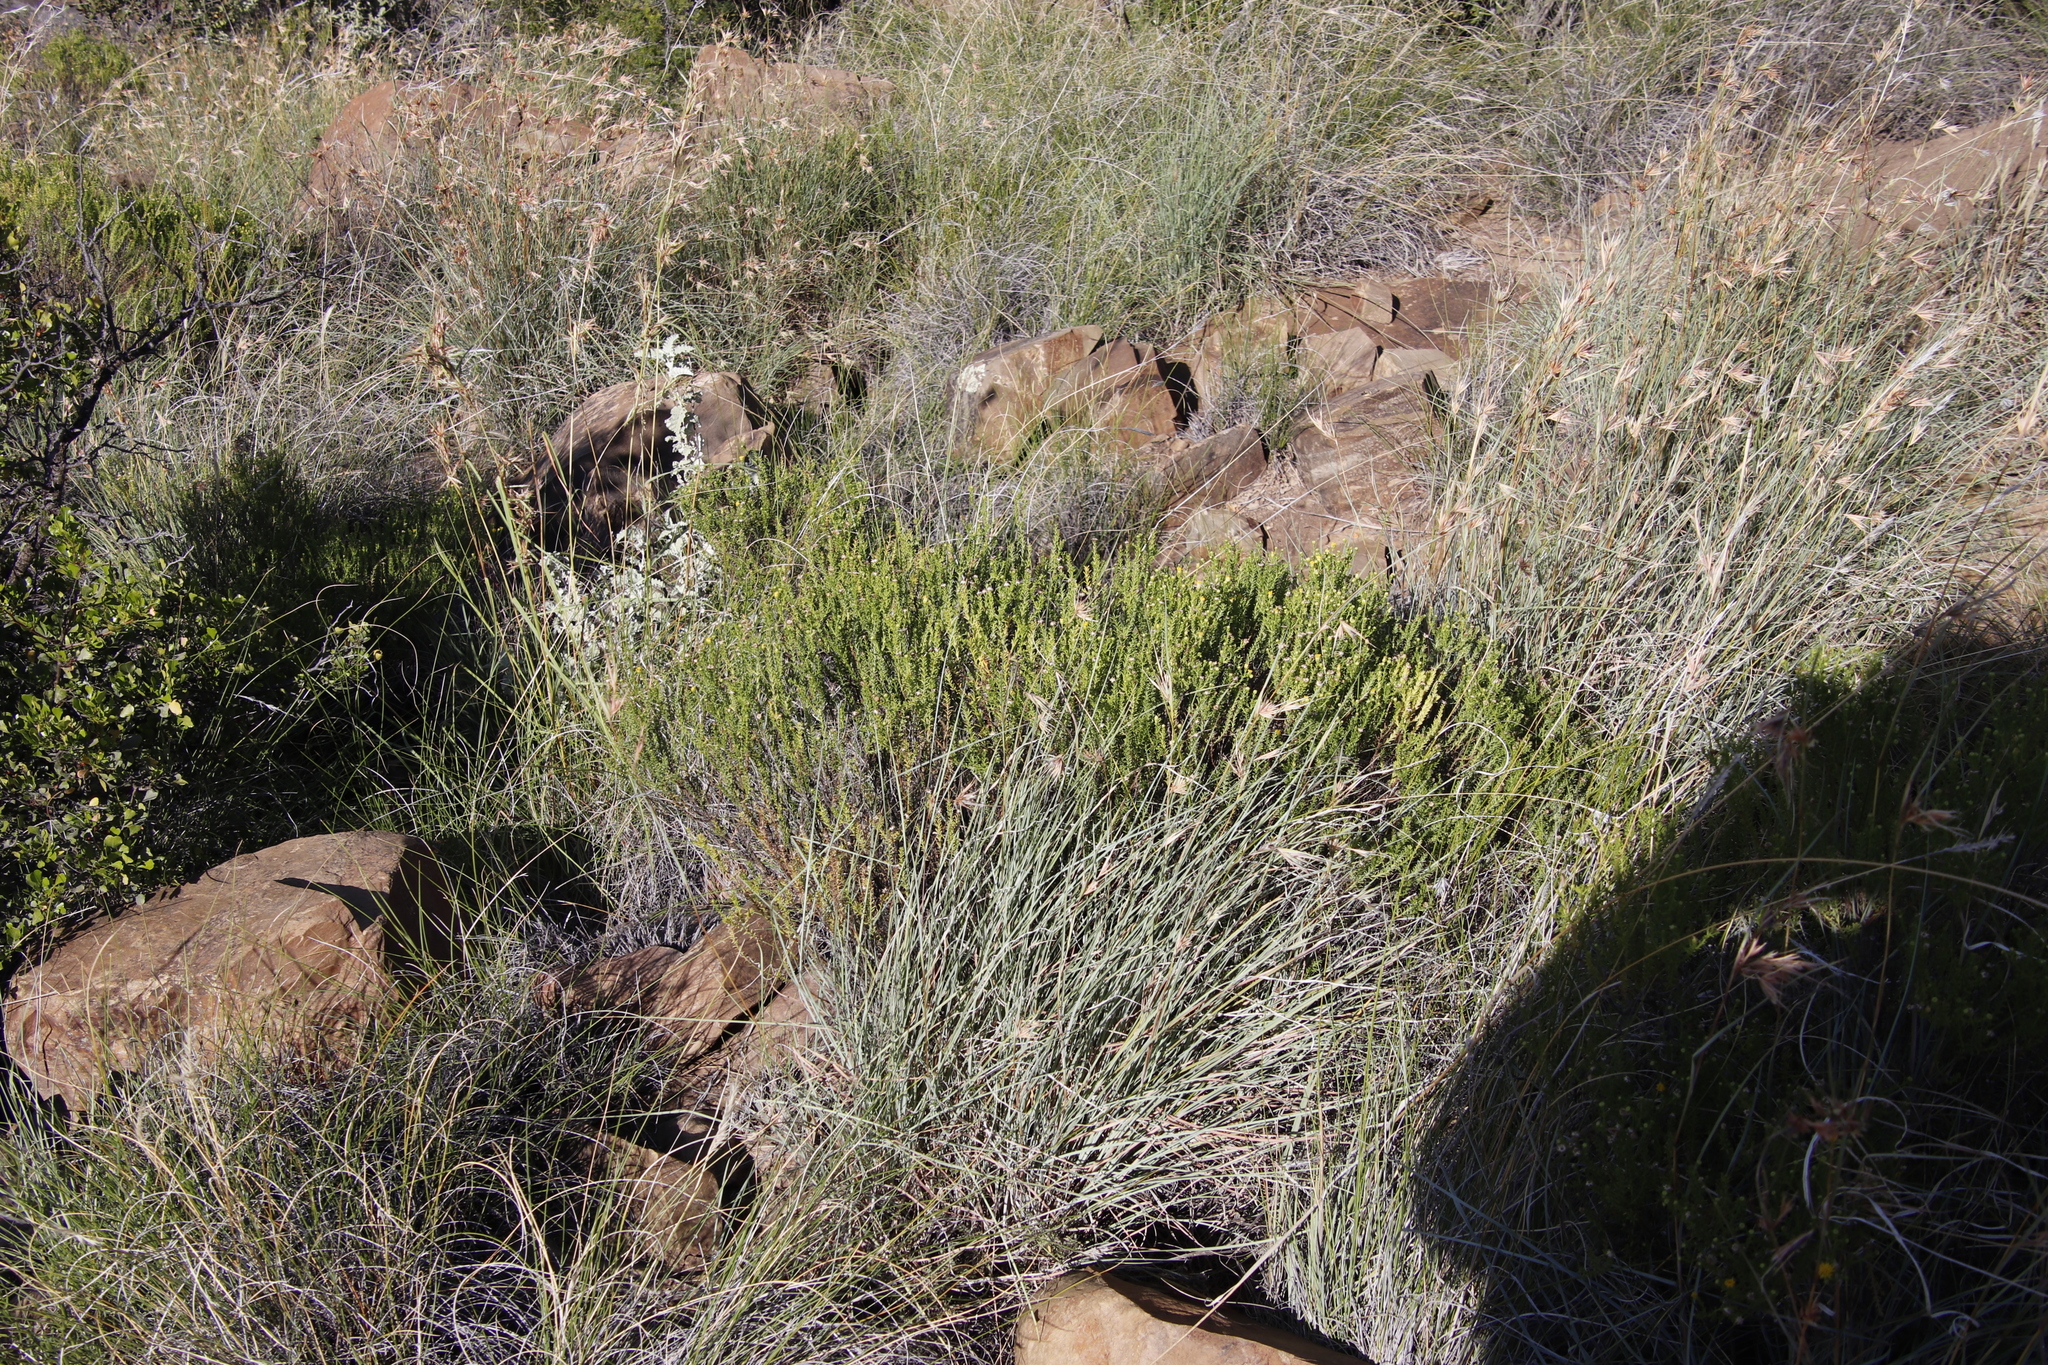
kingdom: Plantae
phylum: Tracheophyta
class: Magnoliopsida
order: Asterales
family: Asteraceae
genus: Chrysocoma
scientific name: Chrysocoma ciliata
